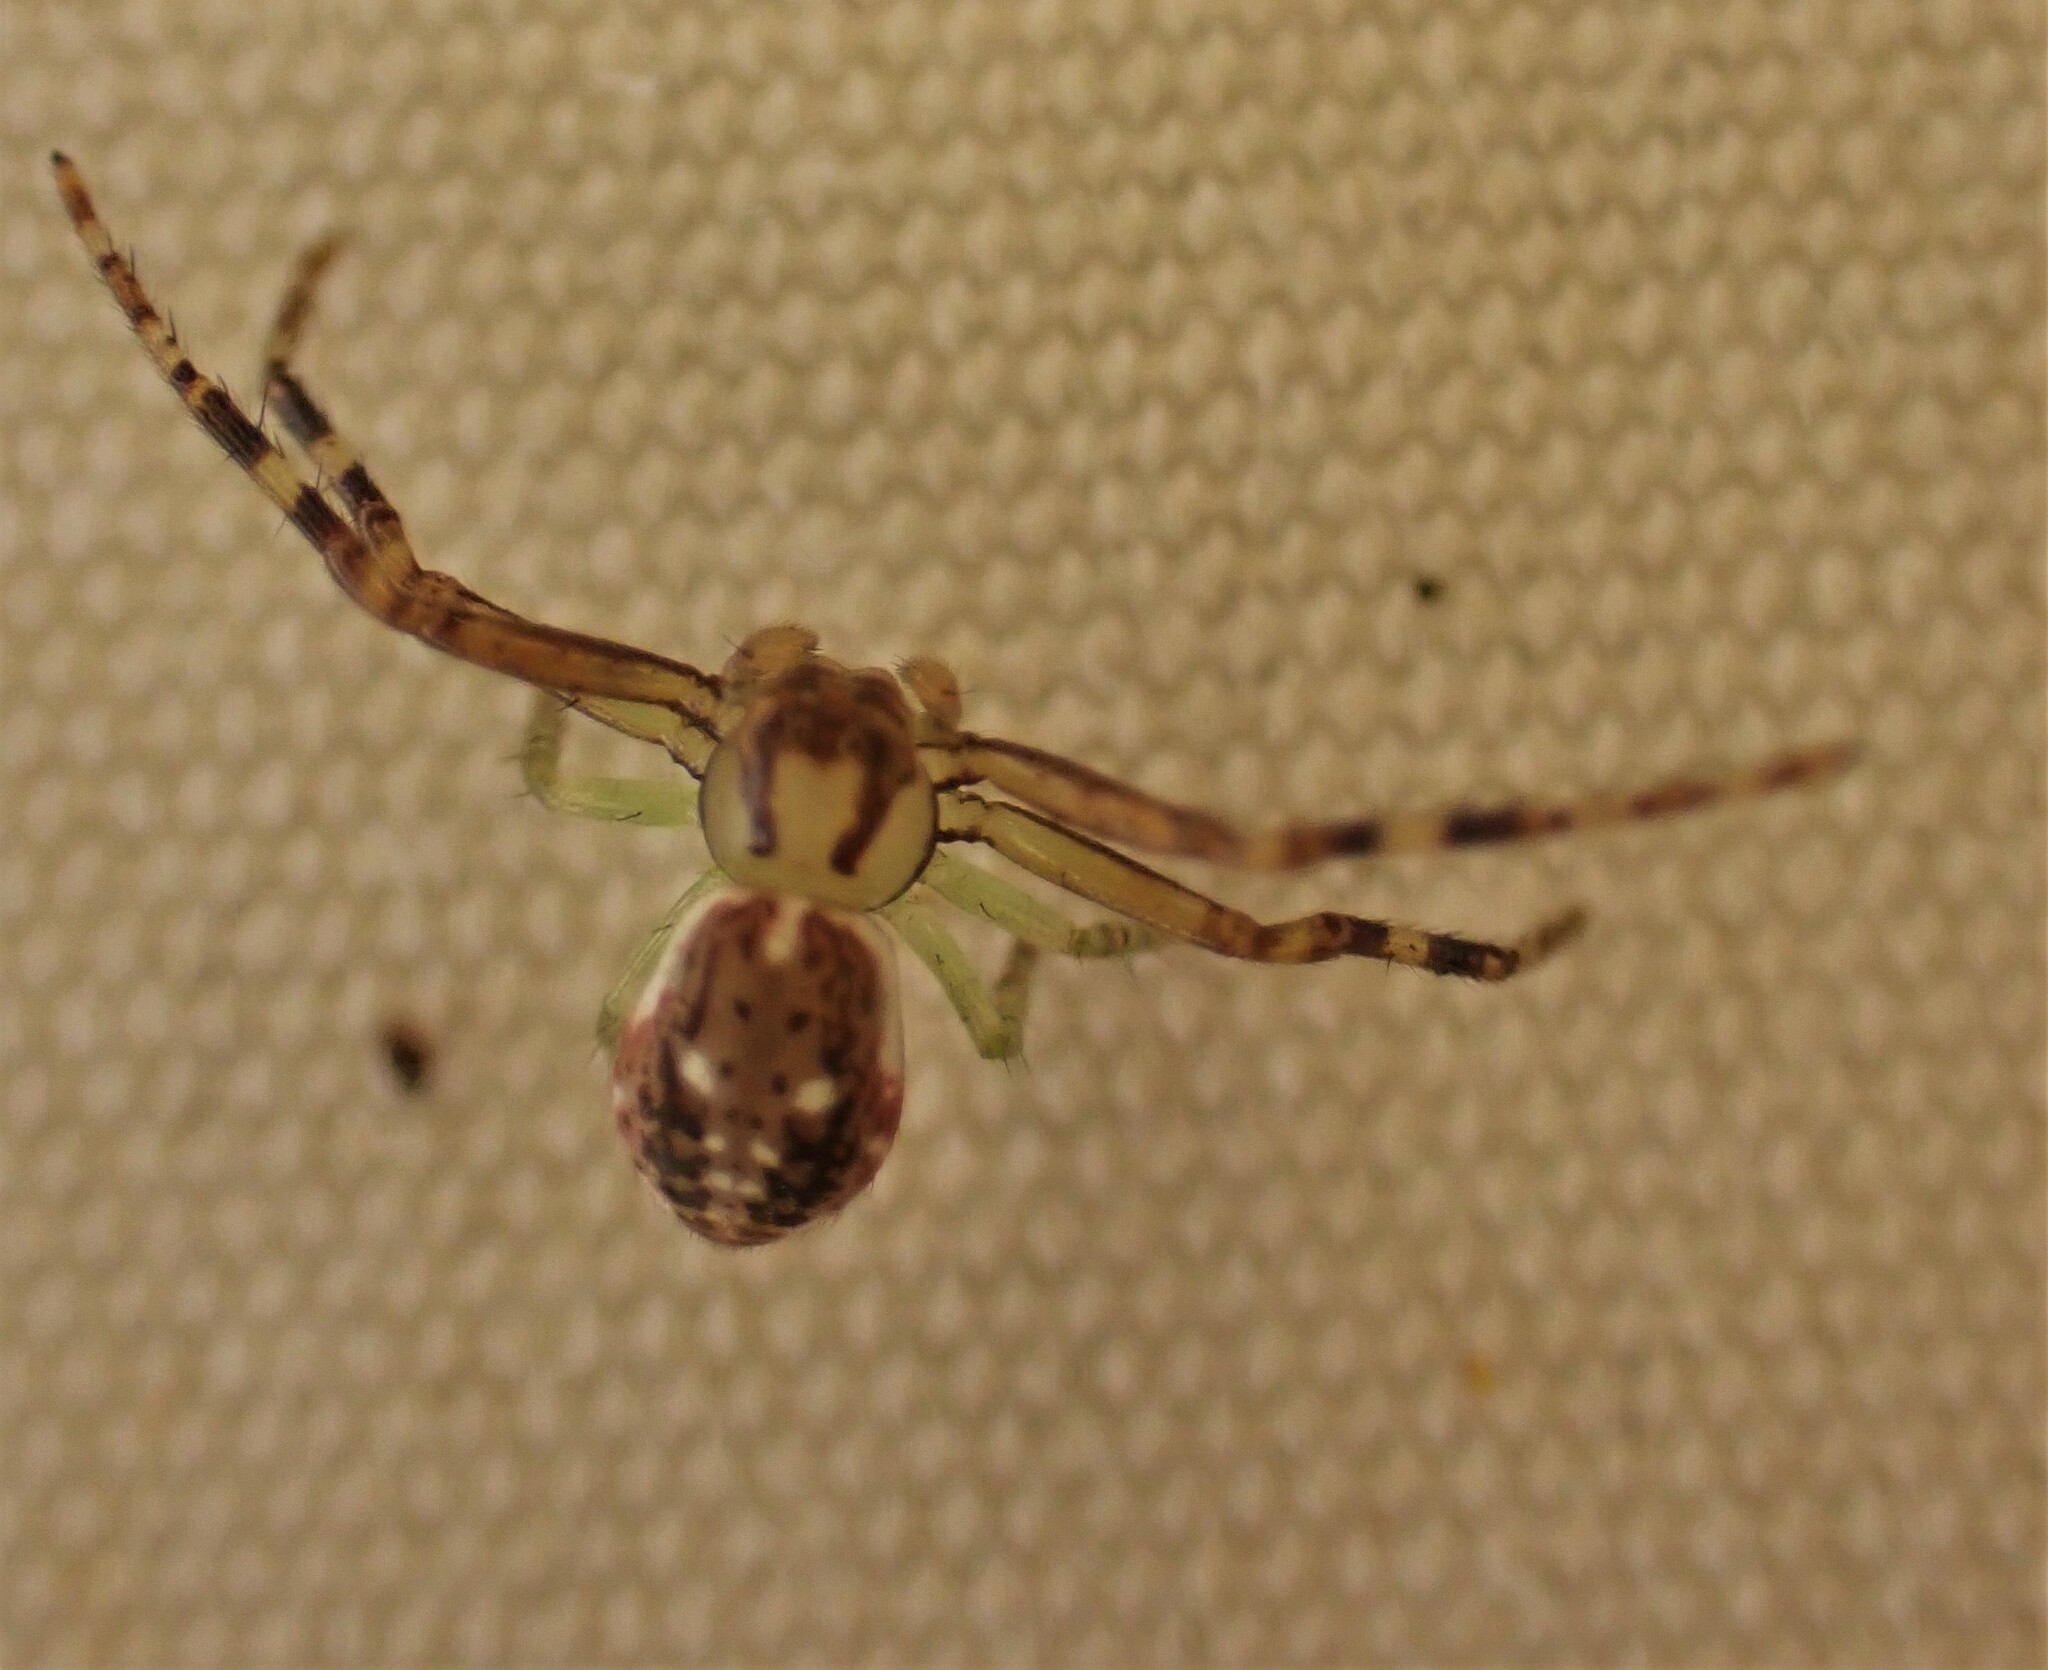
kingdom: Animalia
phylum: Arthropoda
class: Arachnida
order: Araneae
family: Thomisidae
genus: Diaea
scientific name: Diaea ambara
